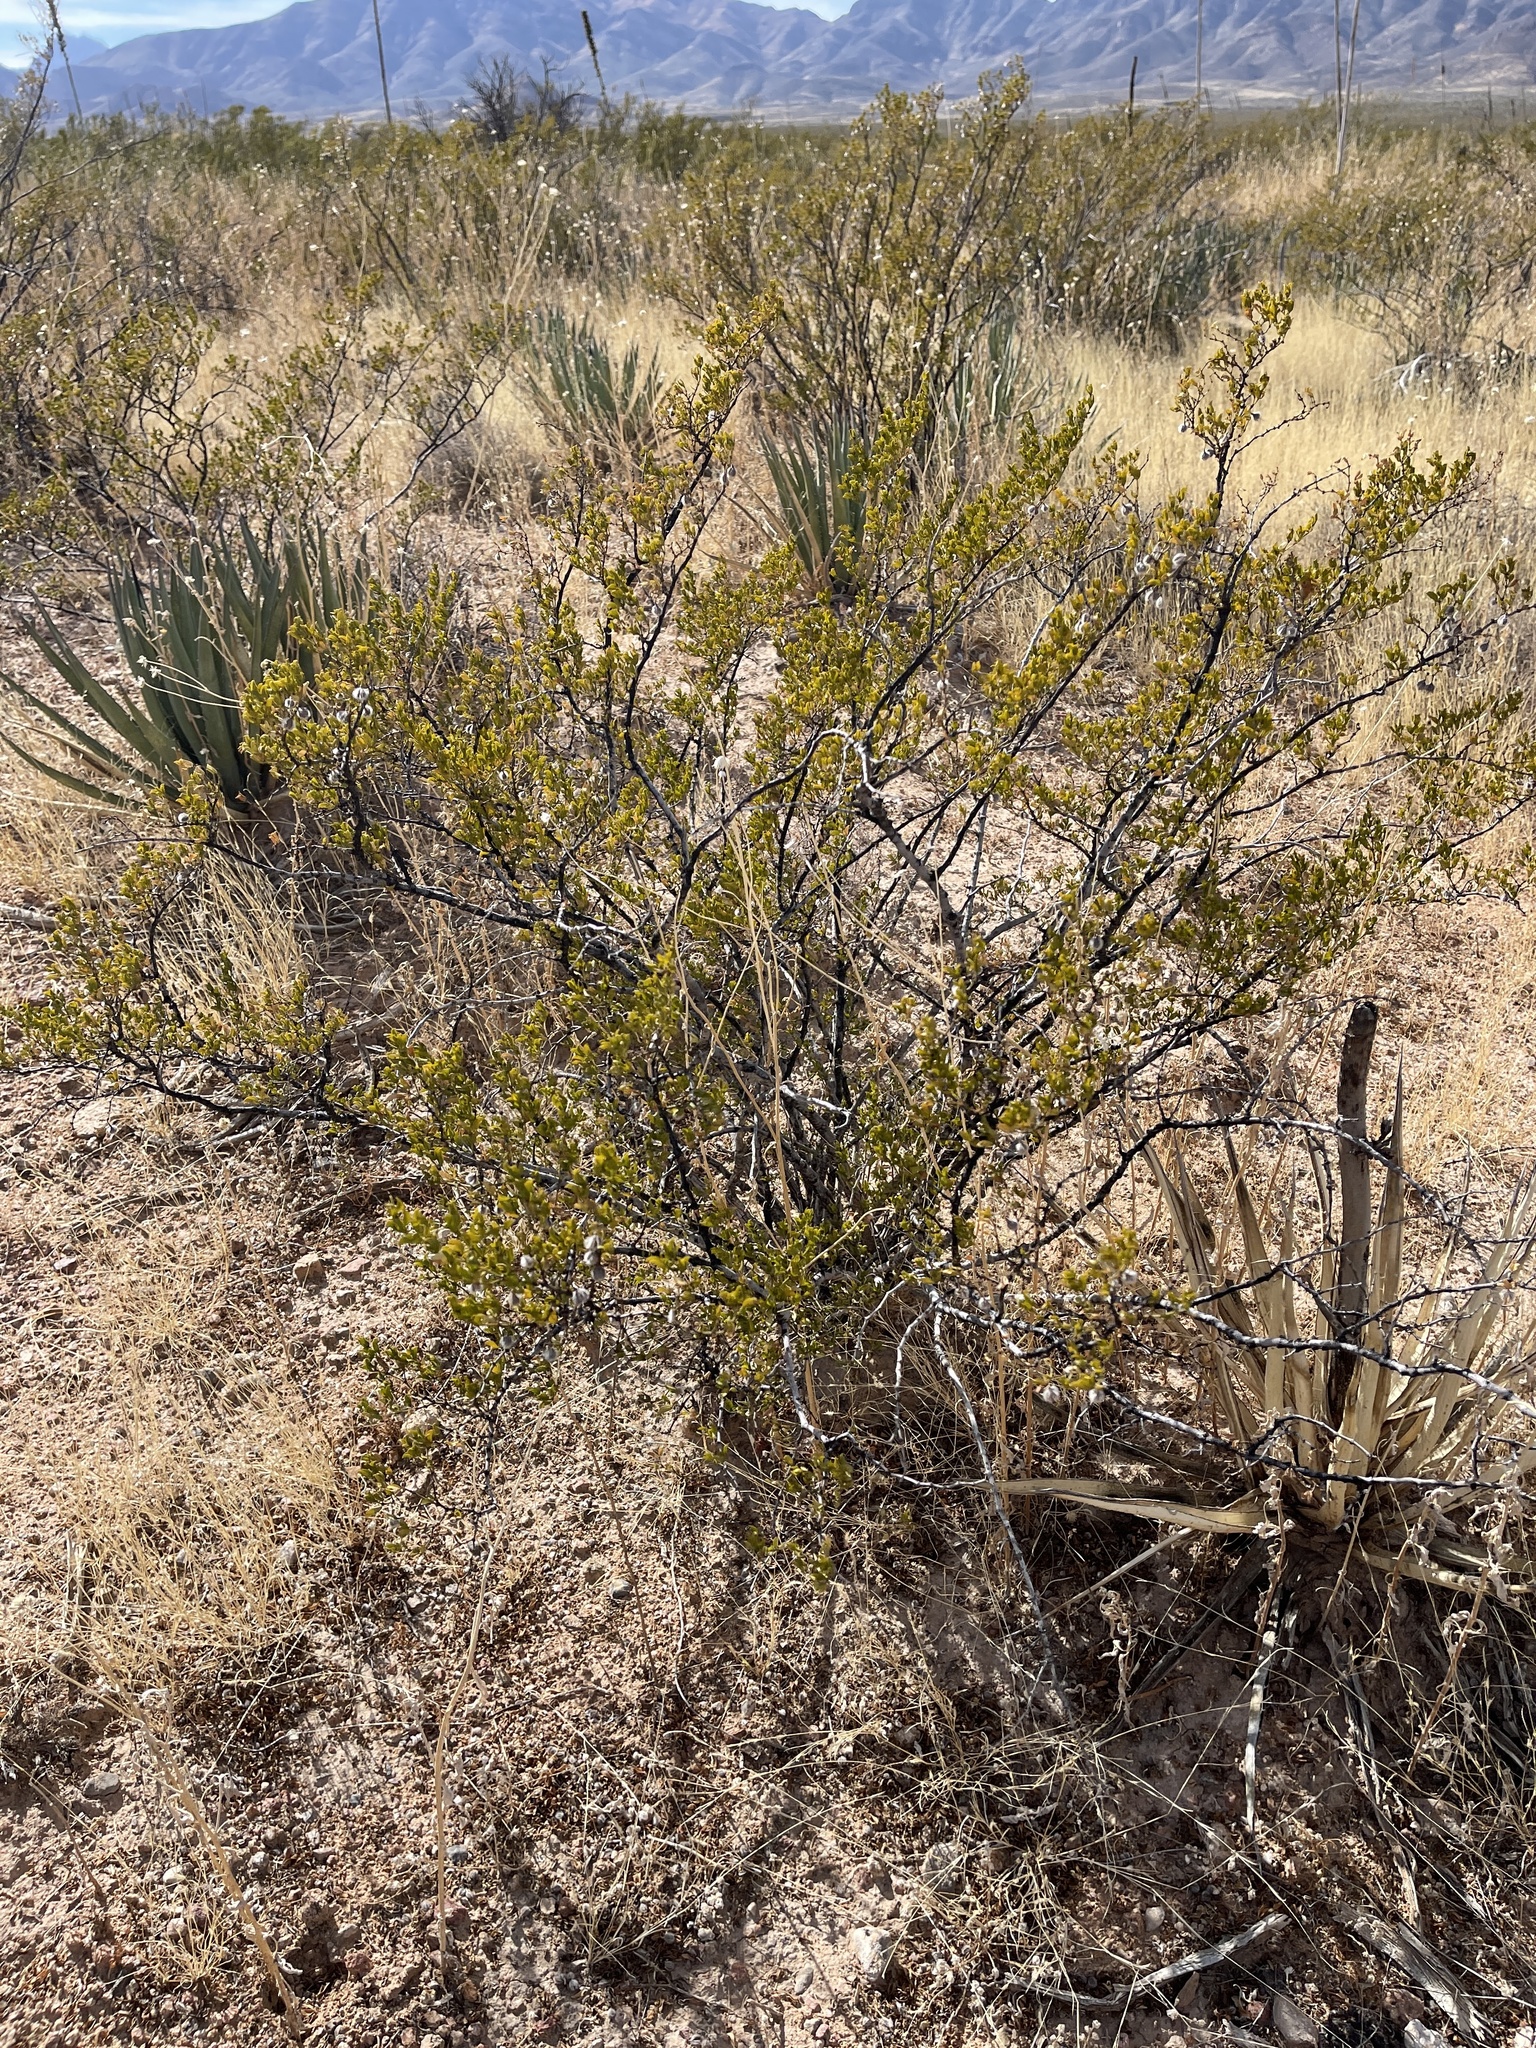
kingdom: Plantae
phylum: Tracheophyta
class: Magnoliopsida
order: Zygophyllales
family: Zygophyllaceae
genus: Larrea
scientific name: Larrea tridentata
